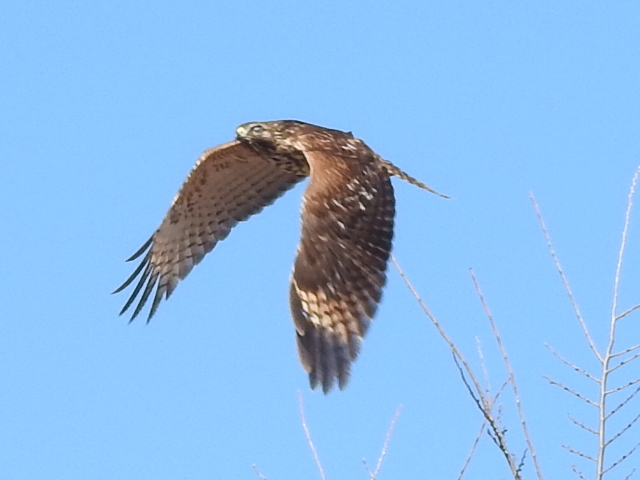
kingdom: Animalia
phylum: Chordata
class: Aves
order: Accipitriformes
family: Accipitridae
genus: Buteo
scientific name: Buteo lineatus
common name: Red-shouldered hawk
